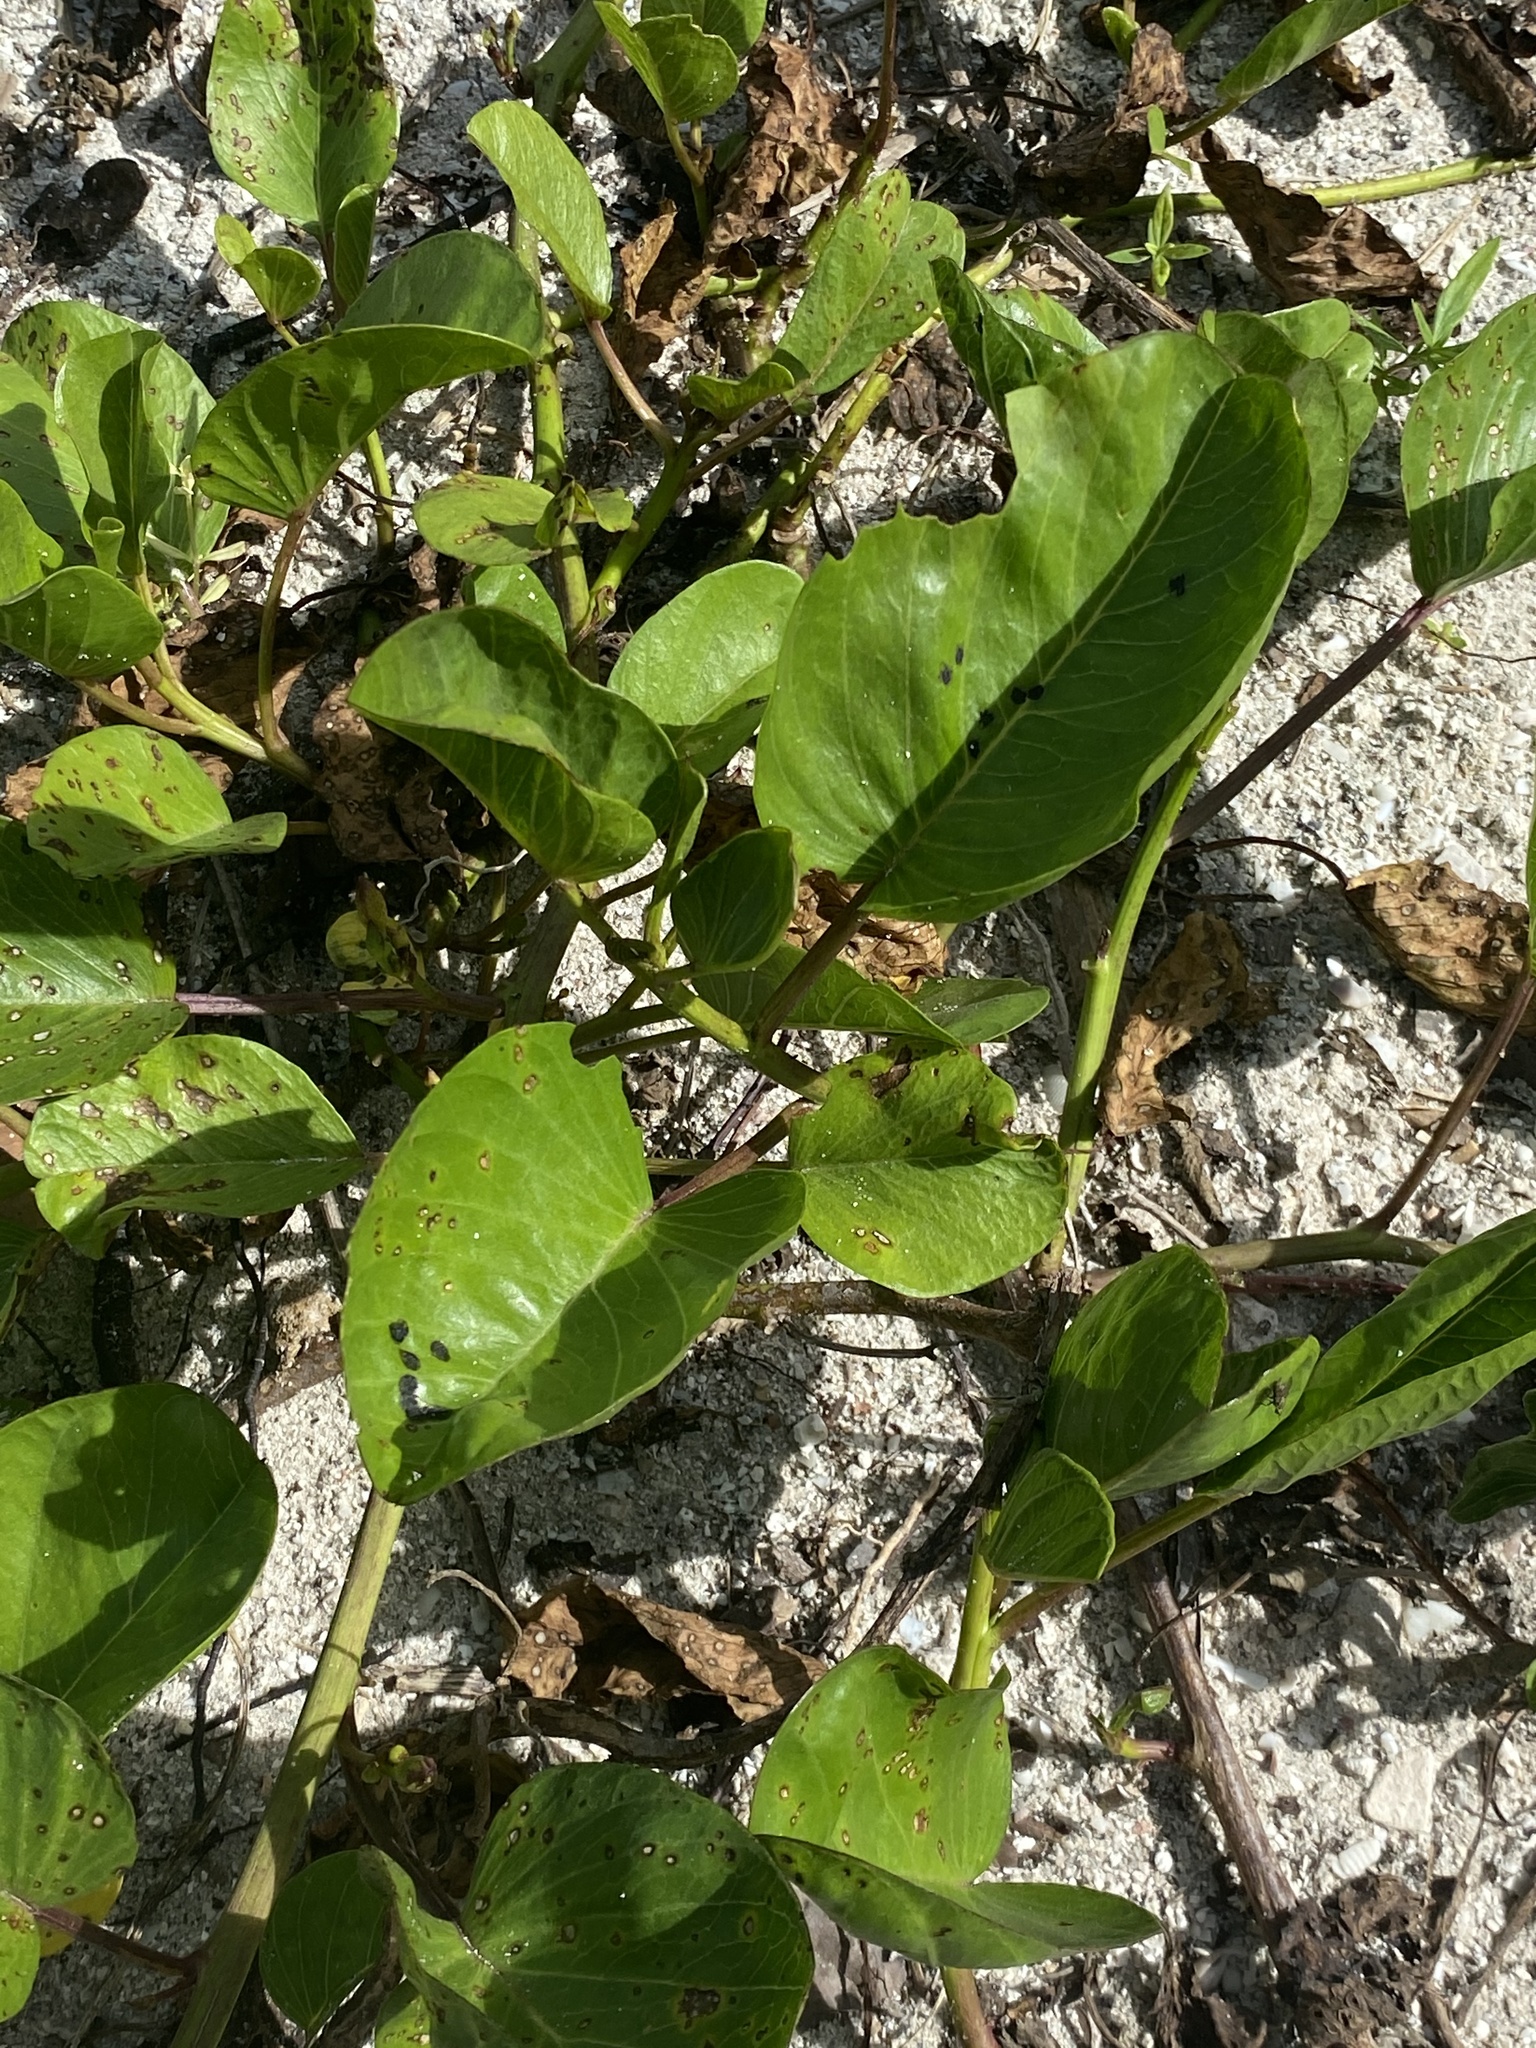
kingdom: Plantae
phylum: Tracheophyta
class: Magnoliopsida
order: Solanales
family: Convolvulaceae
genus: Ipomoea
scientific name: Ipomoea pes-caprae
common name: Beach morning glory
